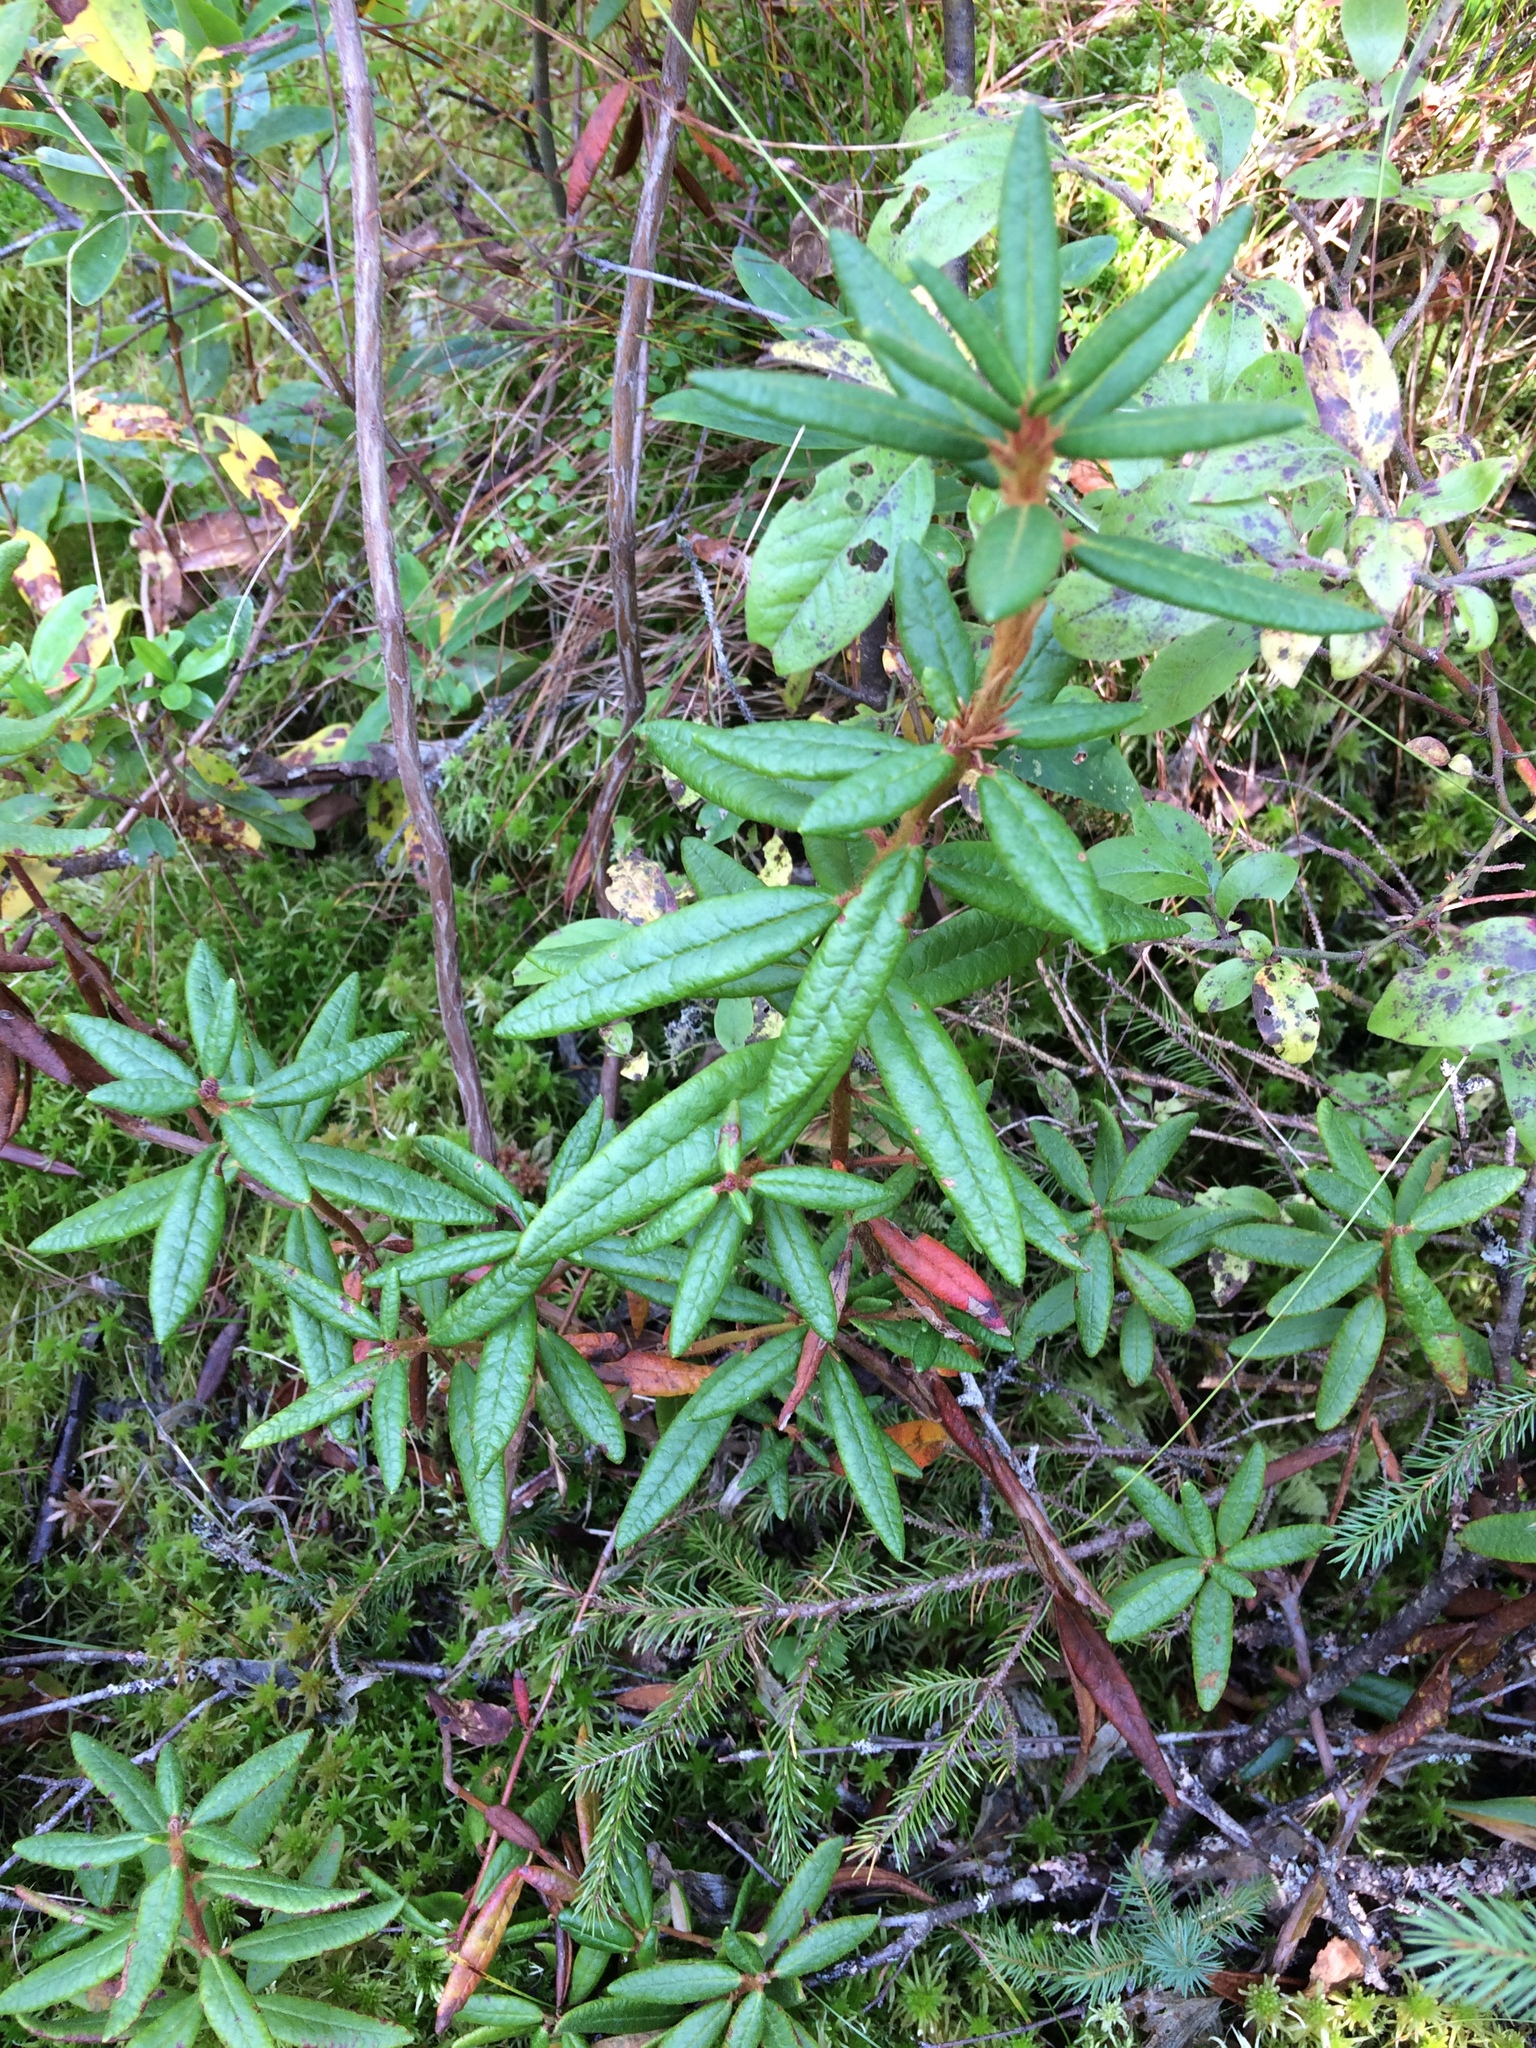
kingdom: Plantae
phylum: Tracheophyta
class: Magnoliopsida
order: Ericales
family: Ericaceae
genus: Rhododendron
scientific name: Rhododendron groenlandicum
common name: Bog labrador tea
